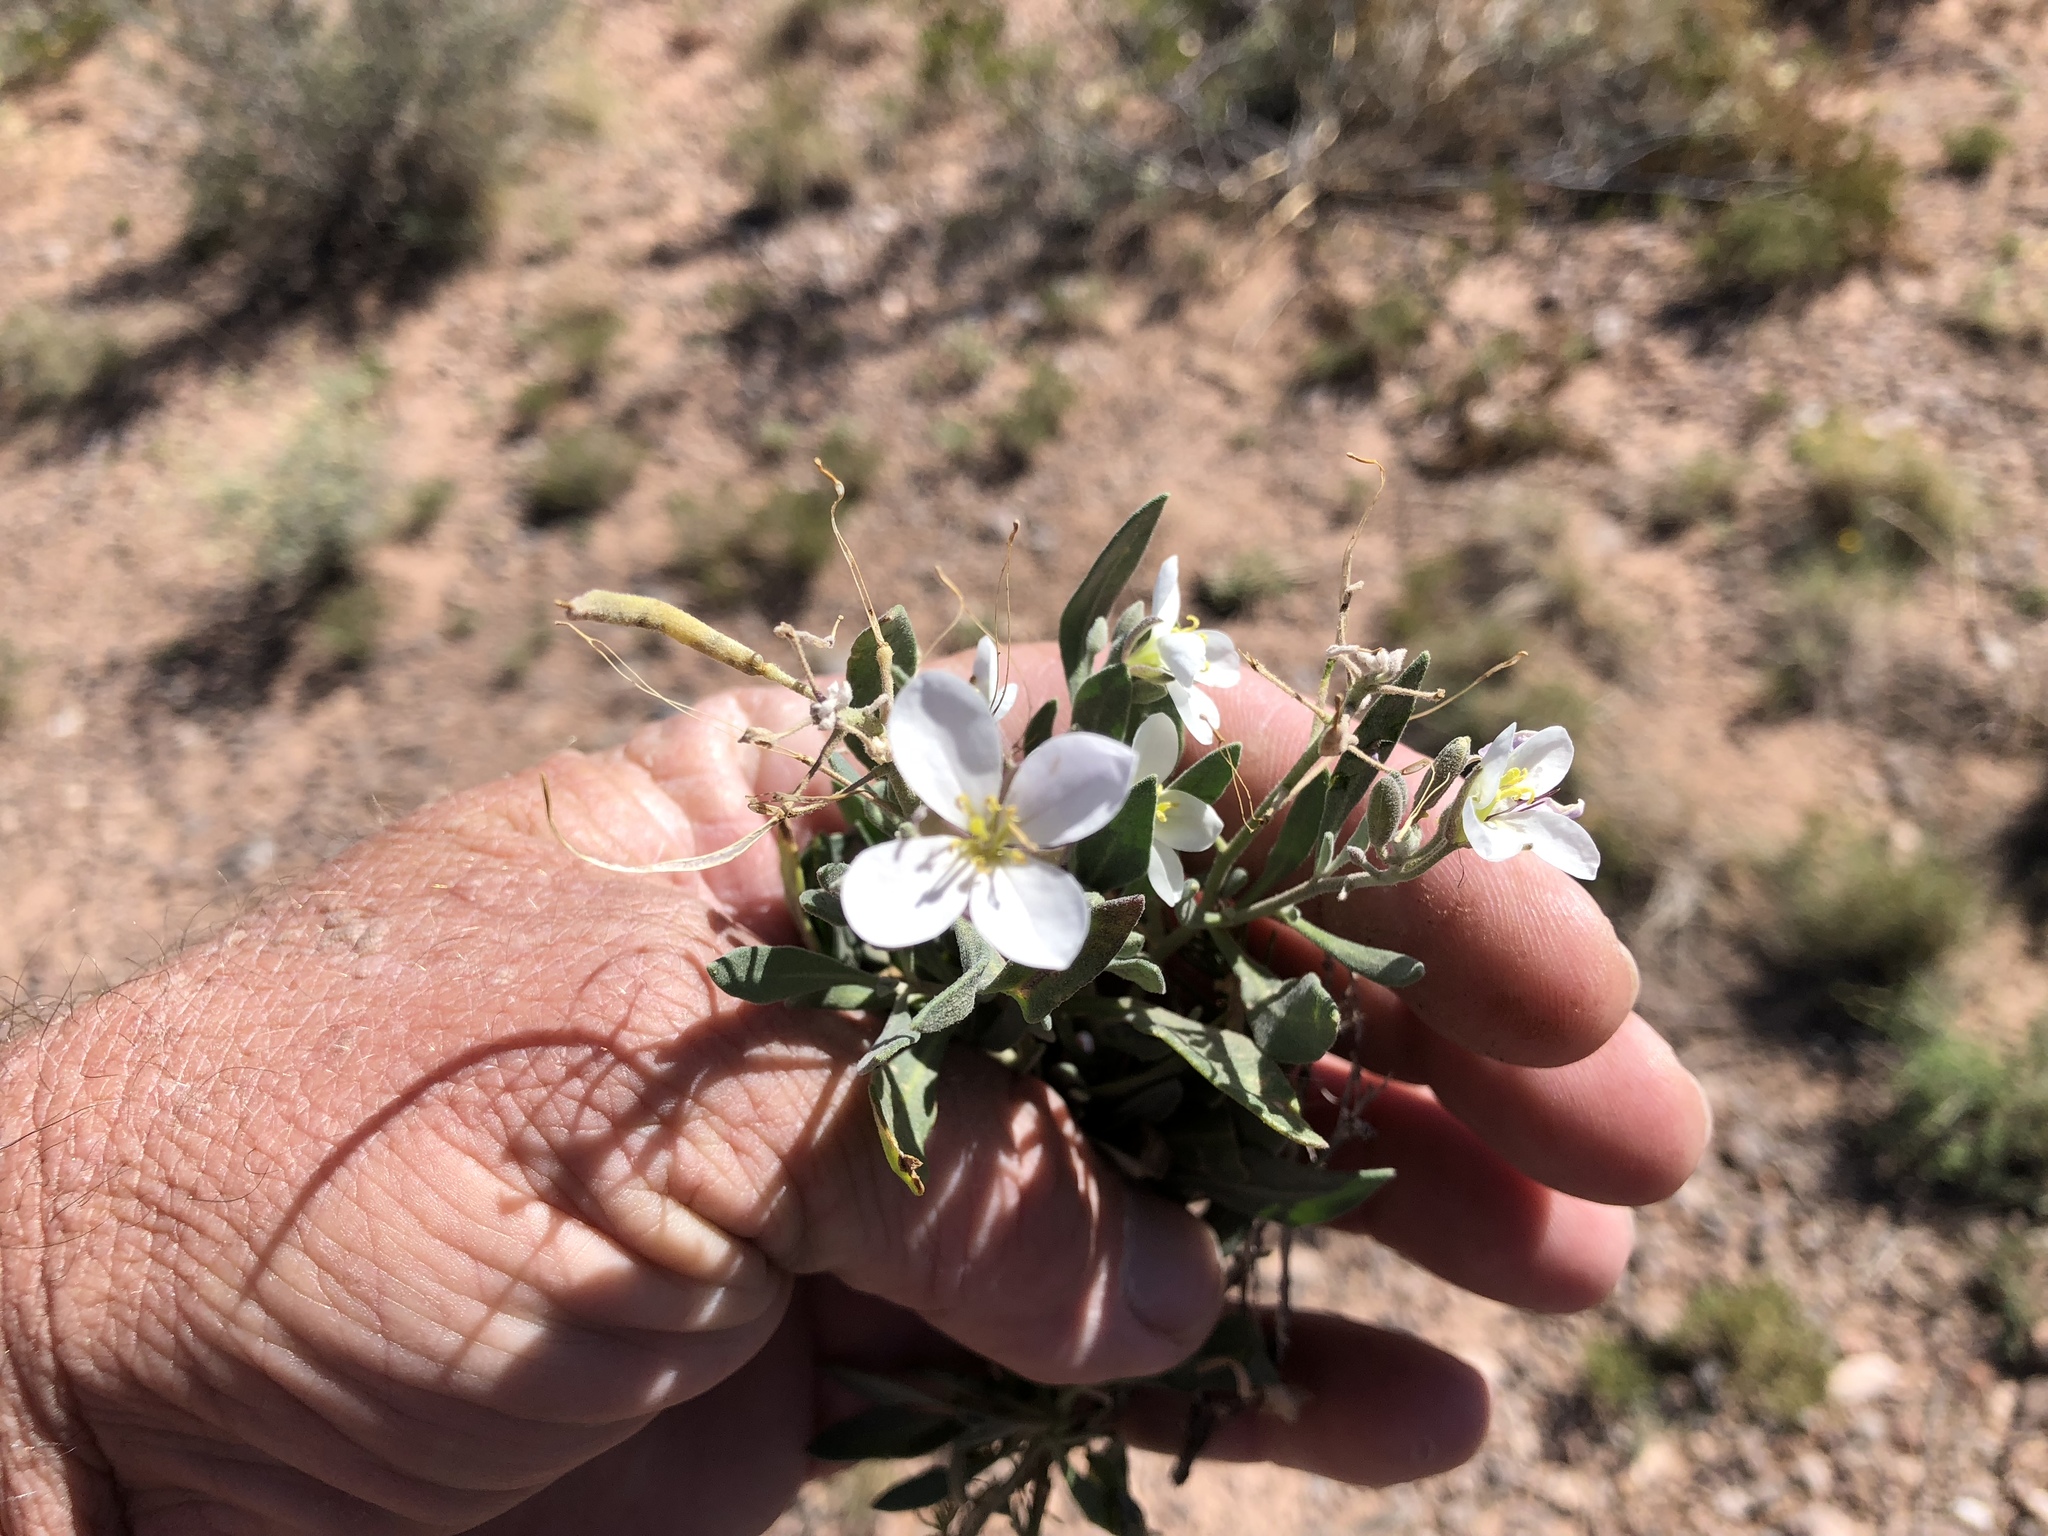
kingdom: Plantae
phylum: Tracheophyta
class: Magnoliopsida
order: Brassicales
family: Brassicaceae
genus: Nerisyrenia
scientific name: Nerisyrenia camporum
